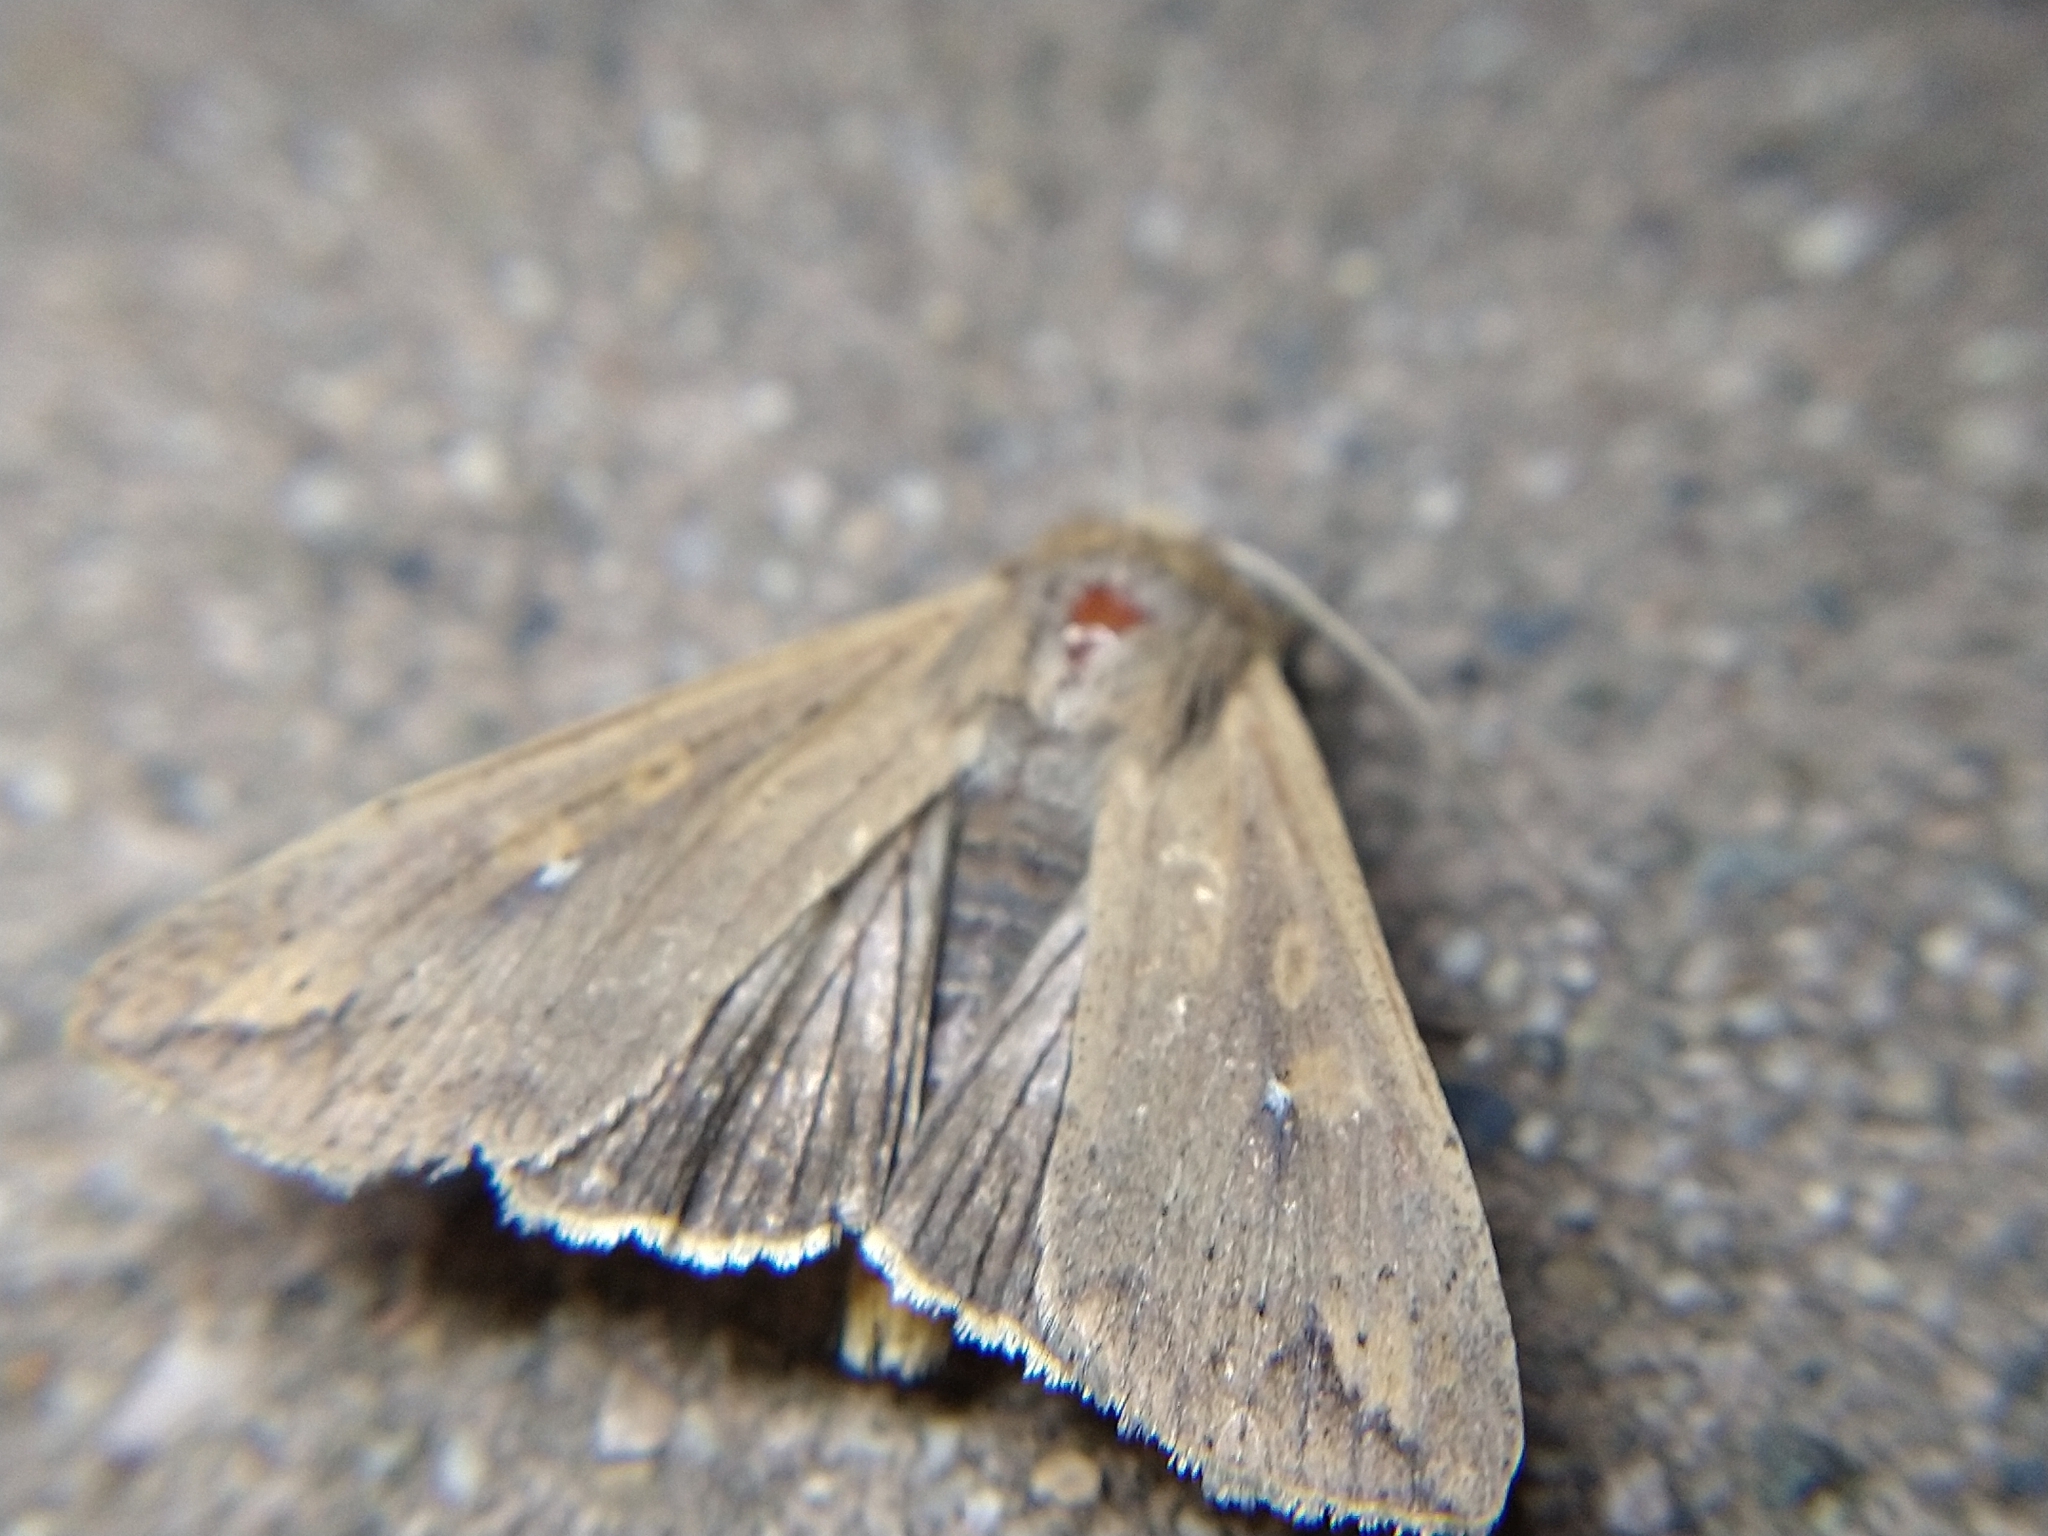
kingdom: Animalia
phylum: Arthropoda
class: Insecta
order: Lepidoptera
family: Noctuidae
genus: Mythimna
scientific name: Mythimna unipuncta
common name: White-speck
